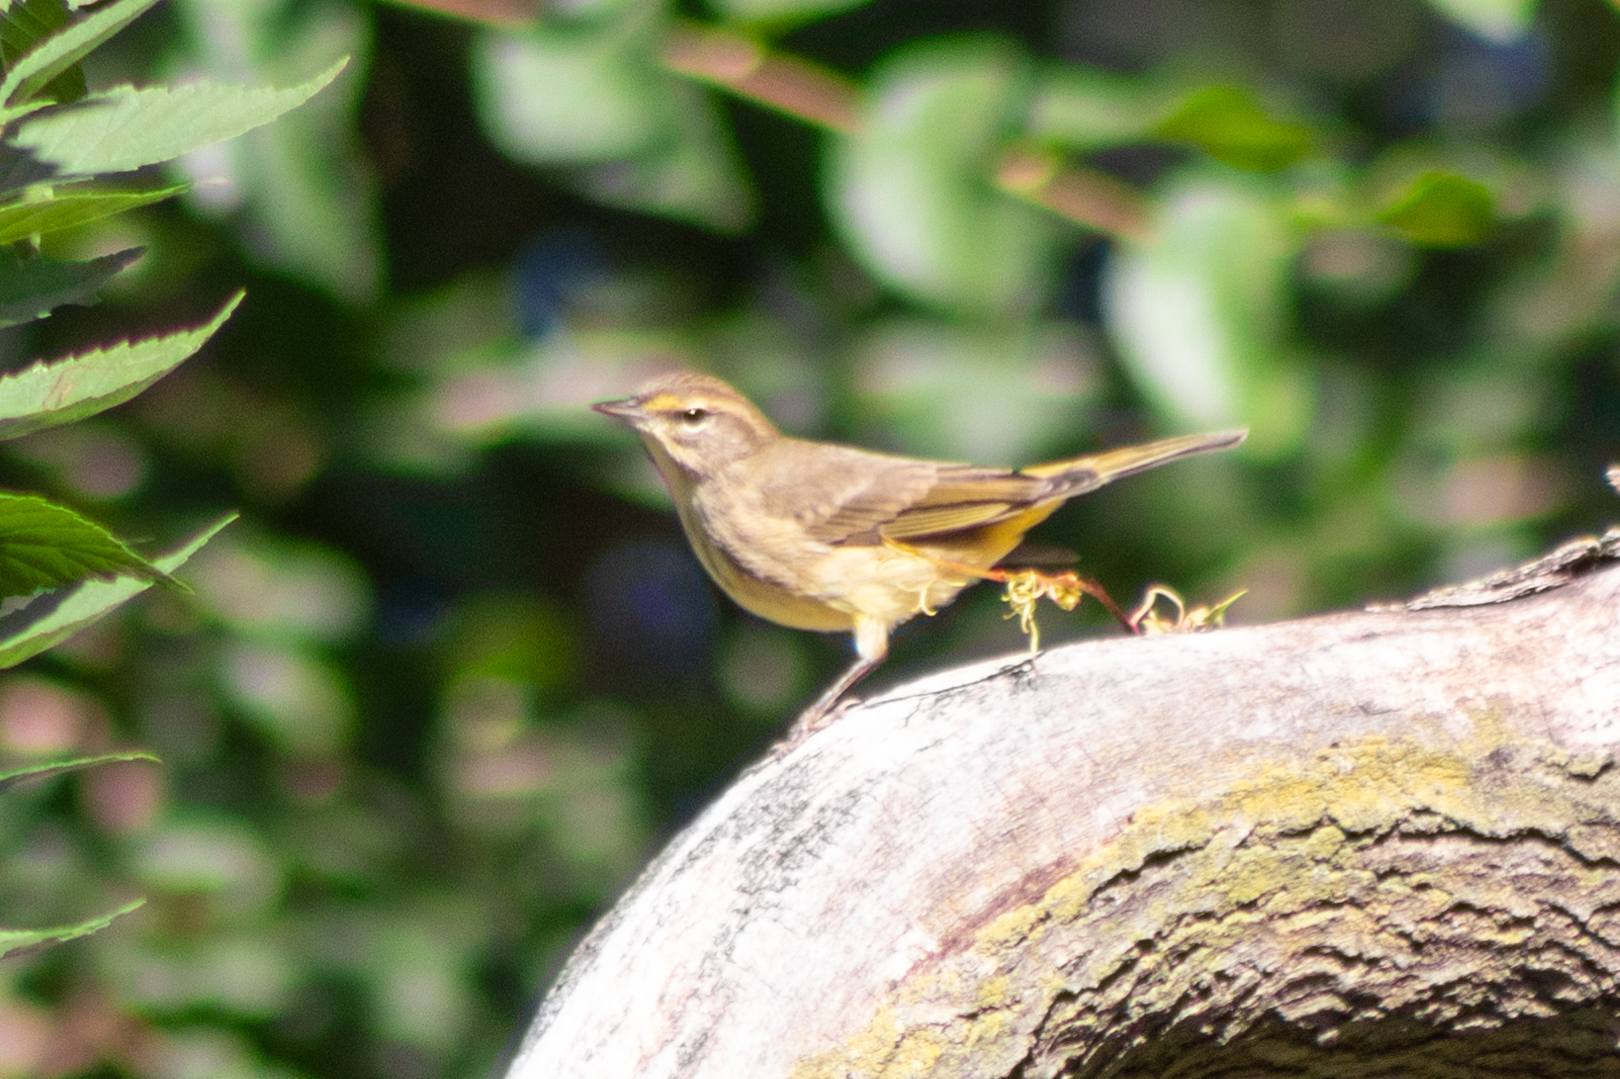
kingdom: Animalia
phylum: Chordata
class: Aves
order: Passeriformes
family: Parulidae
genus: Setophaga
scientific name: Setophaga palmarum
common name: Palm warbler
